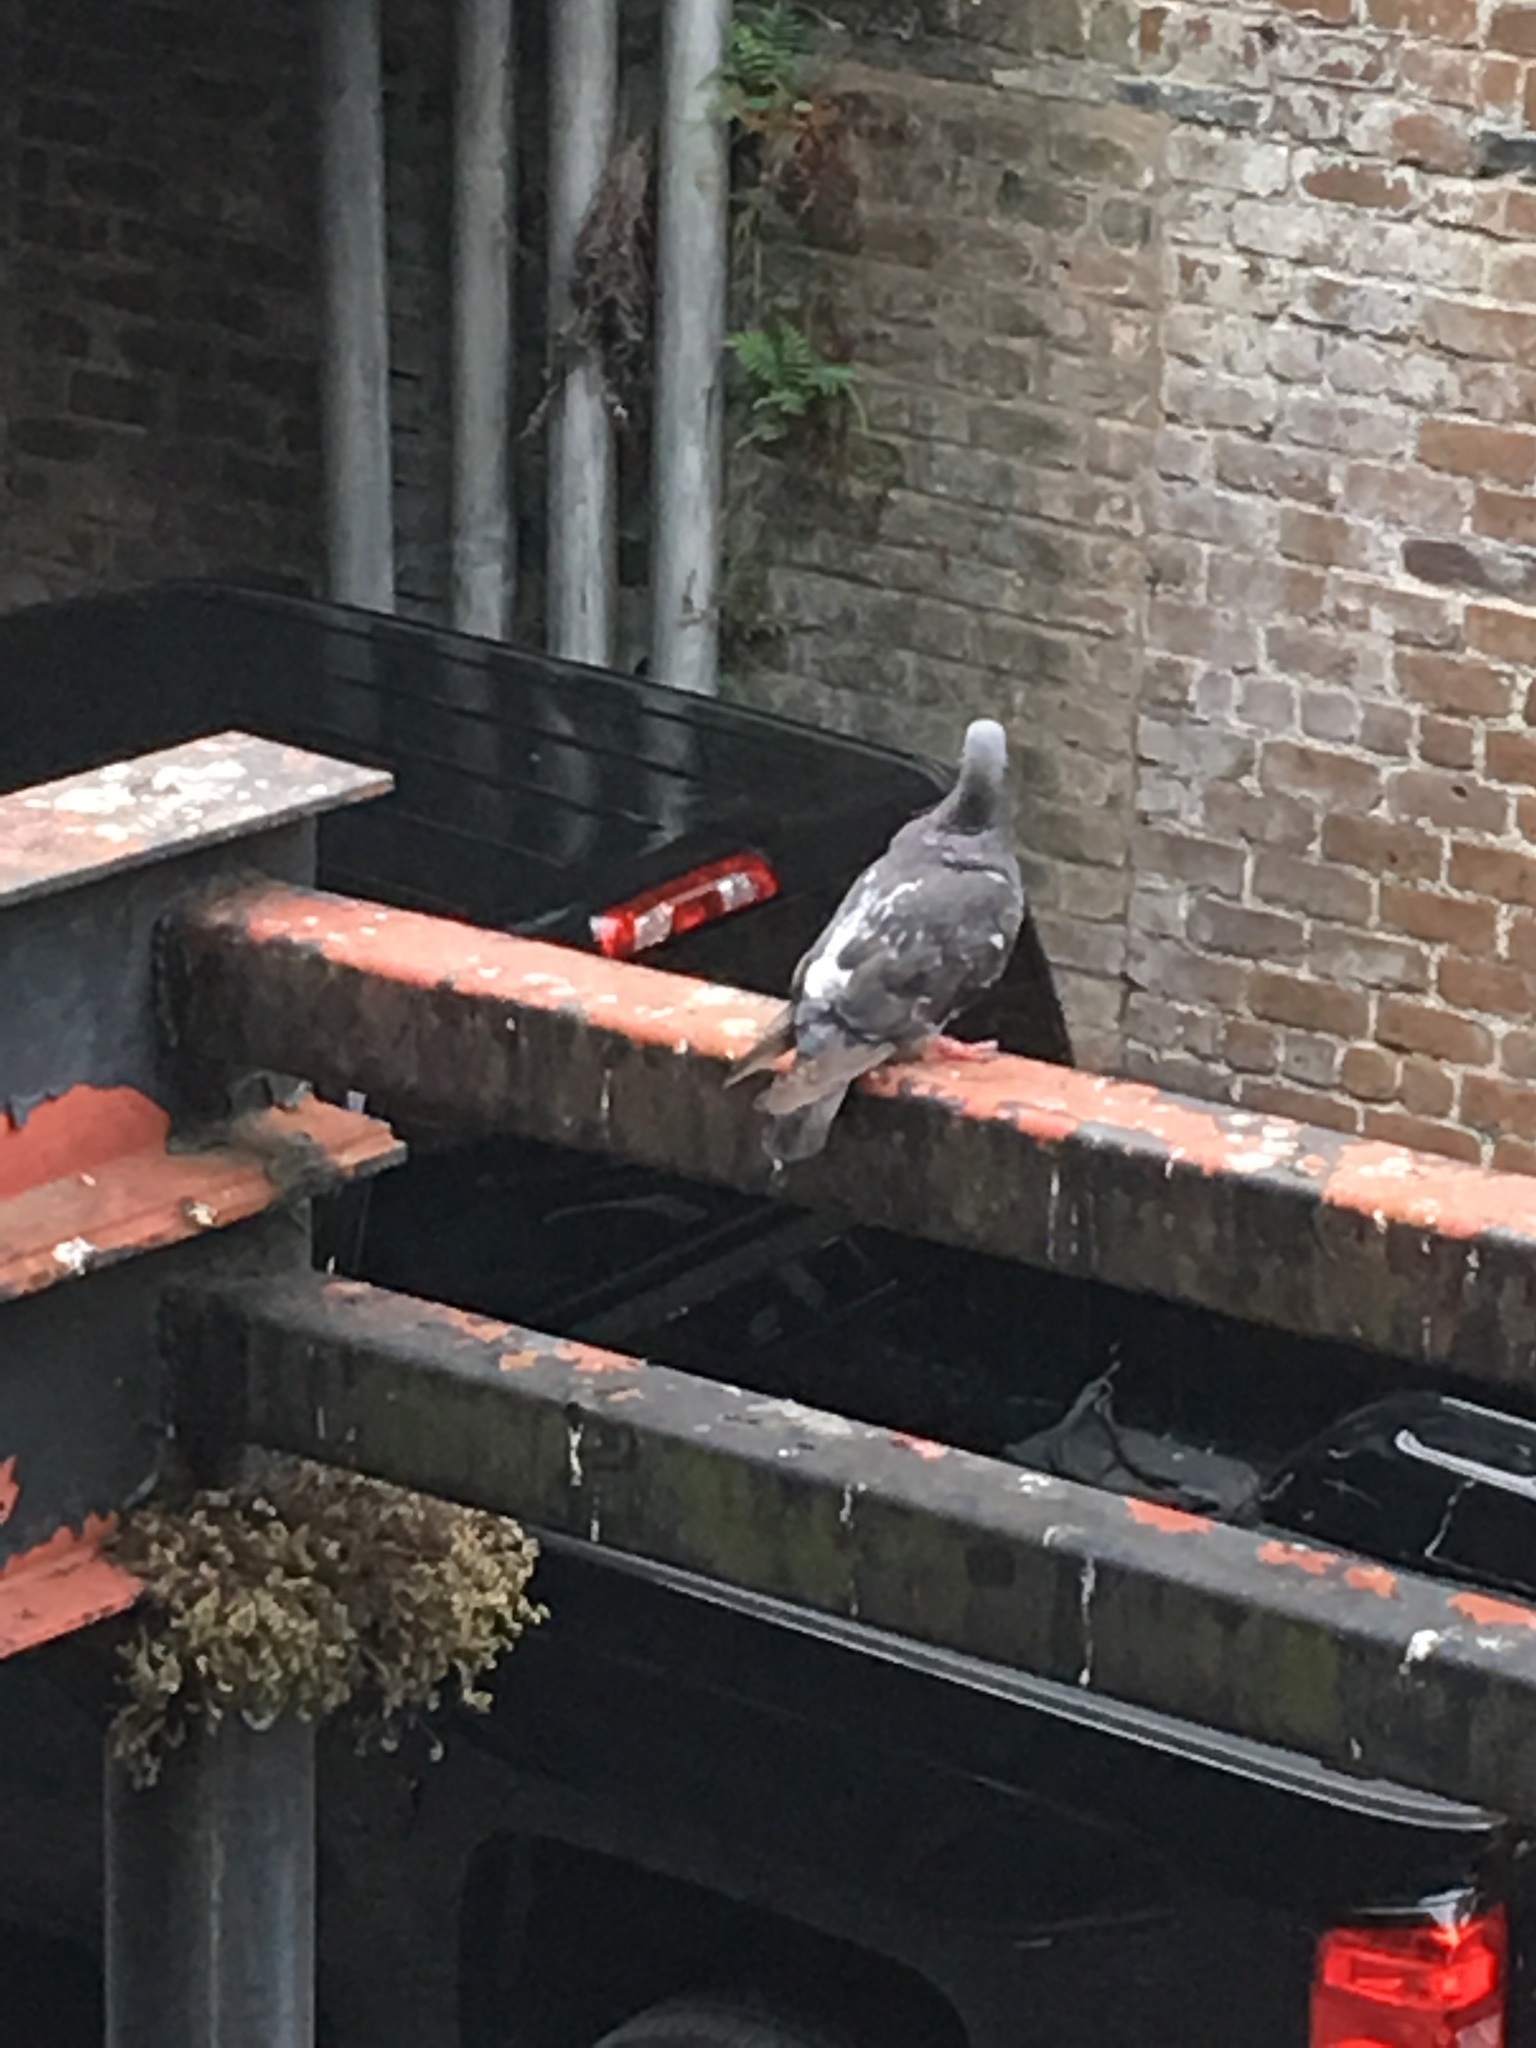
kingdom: Animalia
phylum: Chordata
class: Aves
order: Columbiformes
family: Columbidae
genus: Columba
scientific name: Columba livia
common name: Rock pigeon
